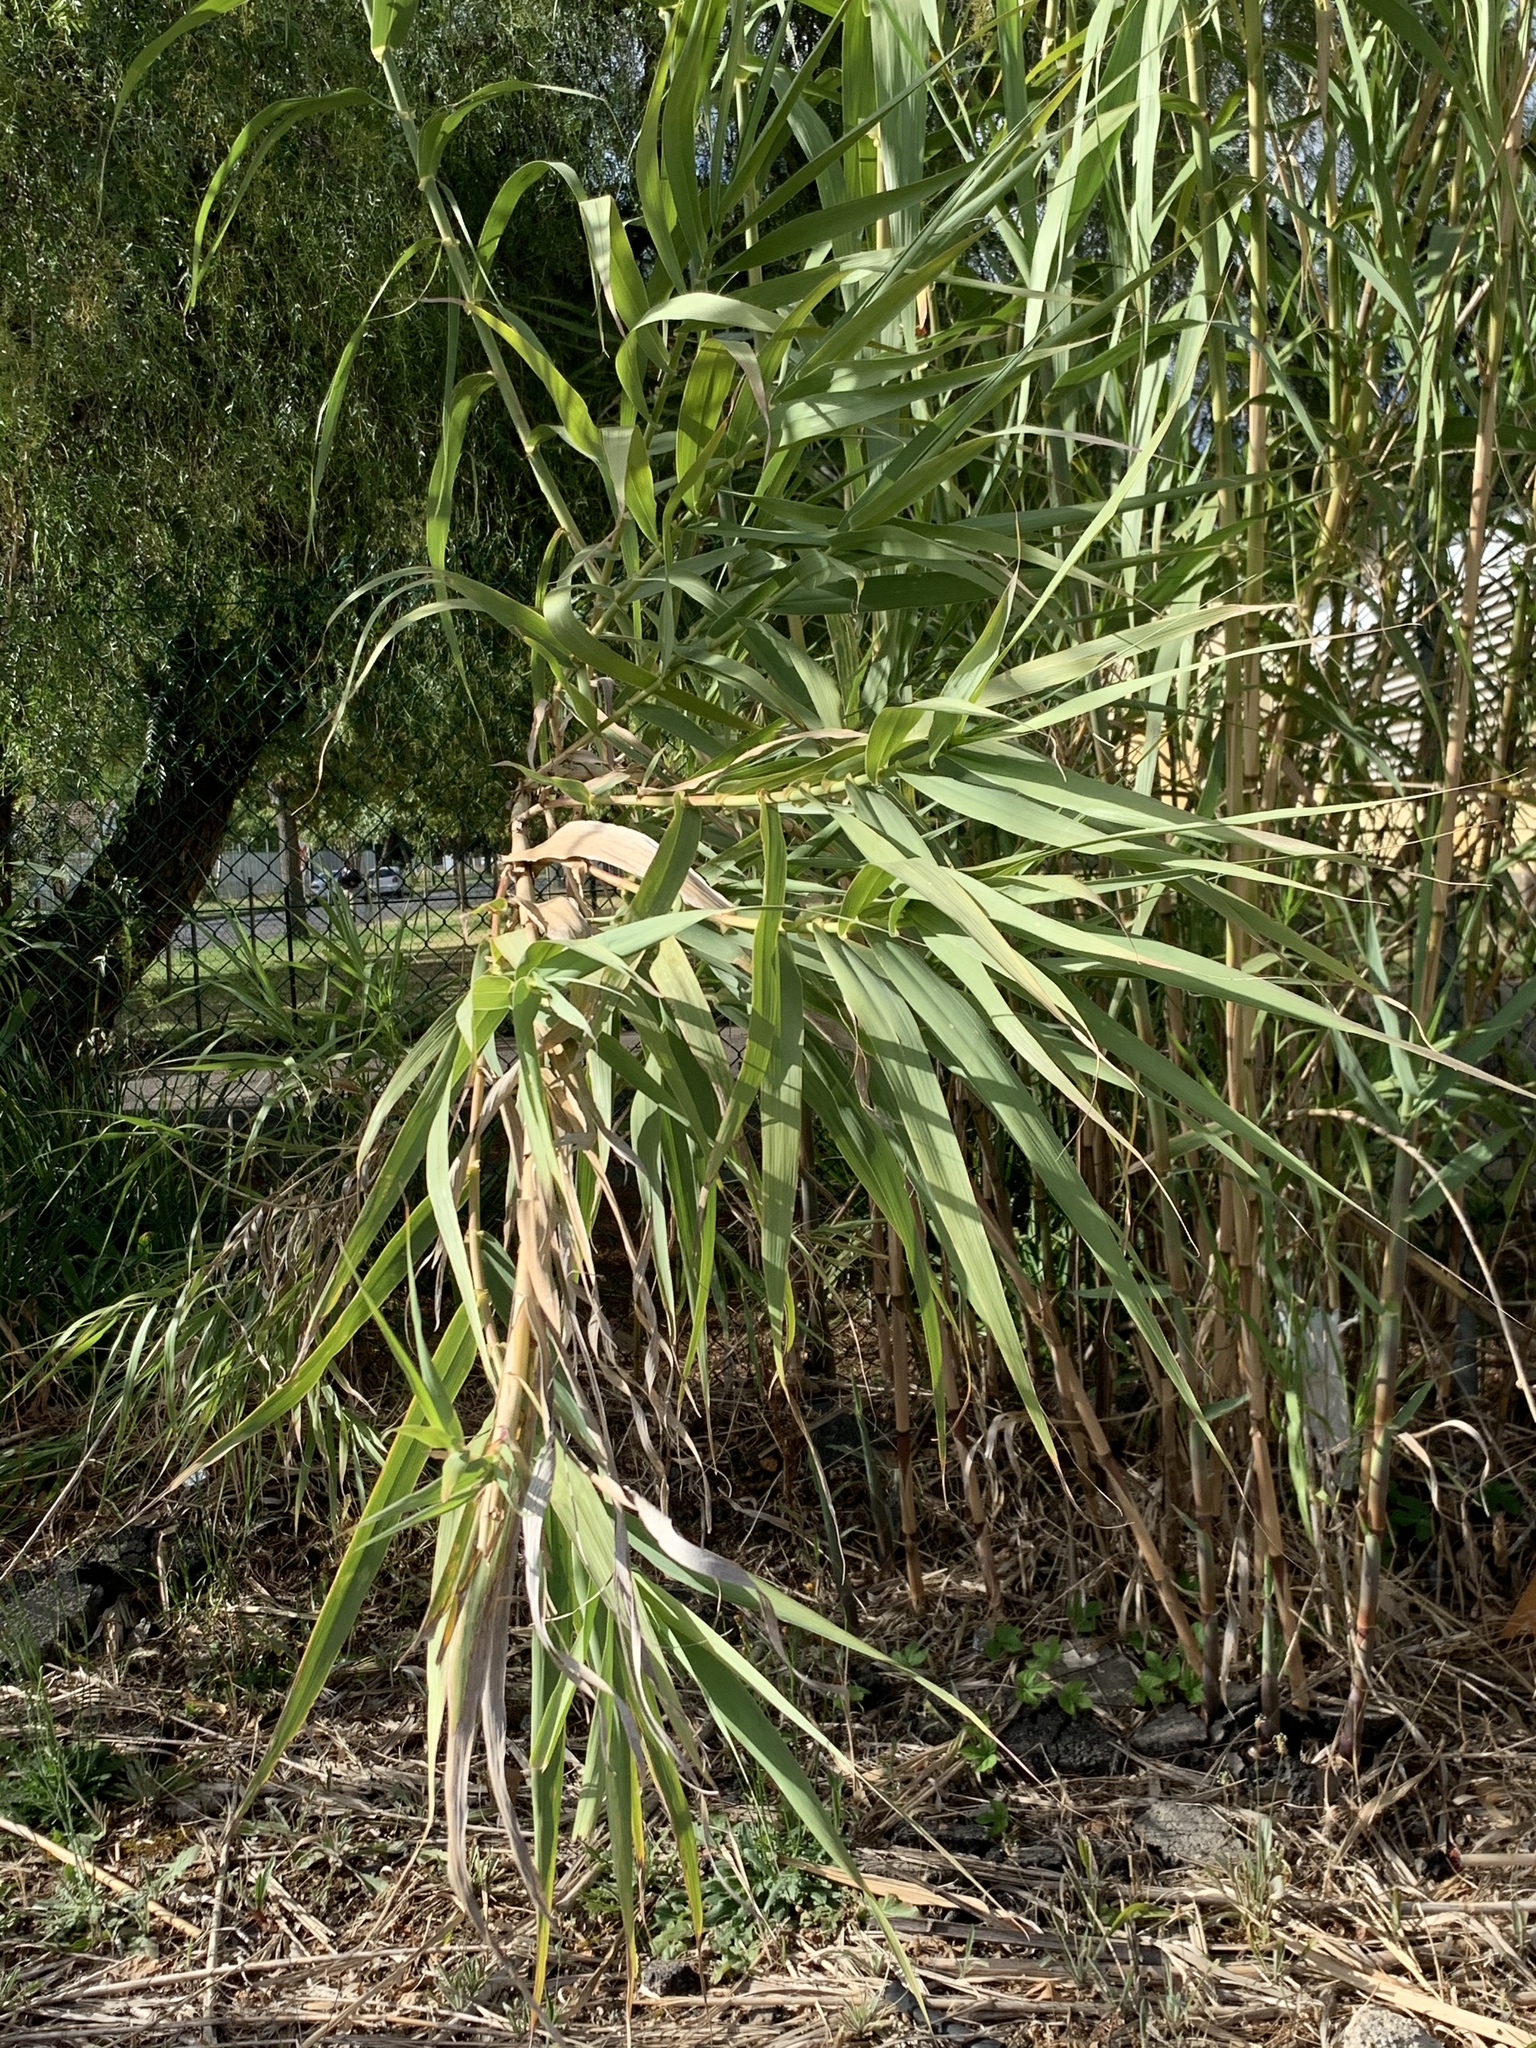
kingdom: Plantae
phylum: Tracheophyta
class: Liliopsida
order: Poales
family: Poaceae
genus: Arundo
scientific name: Arundo donax
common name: Giant reed
